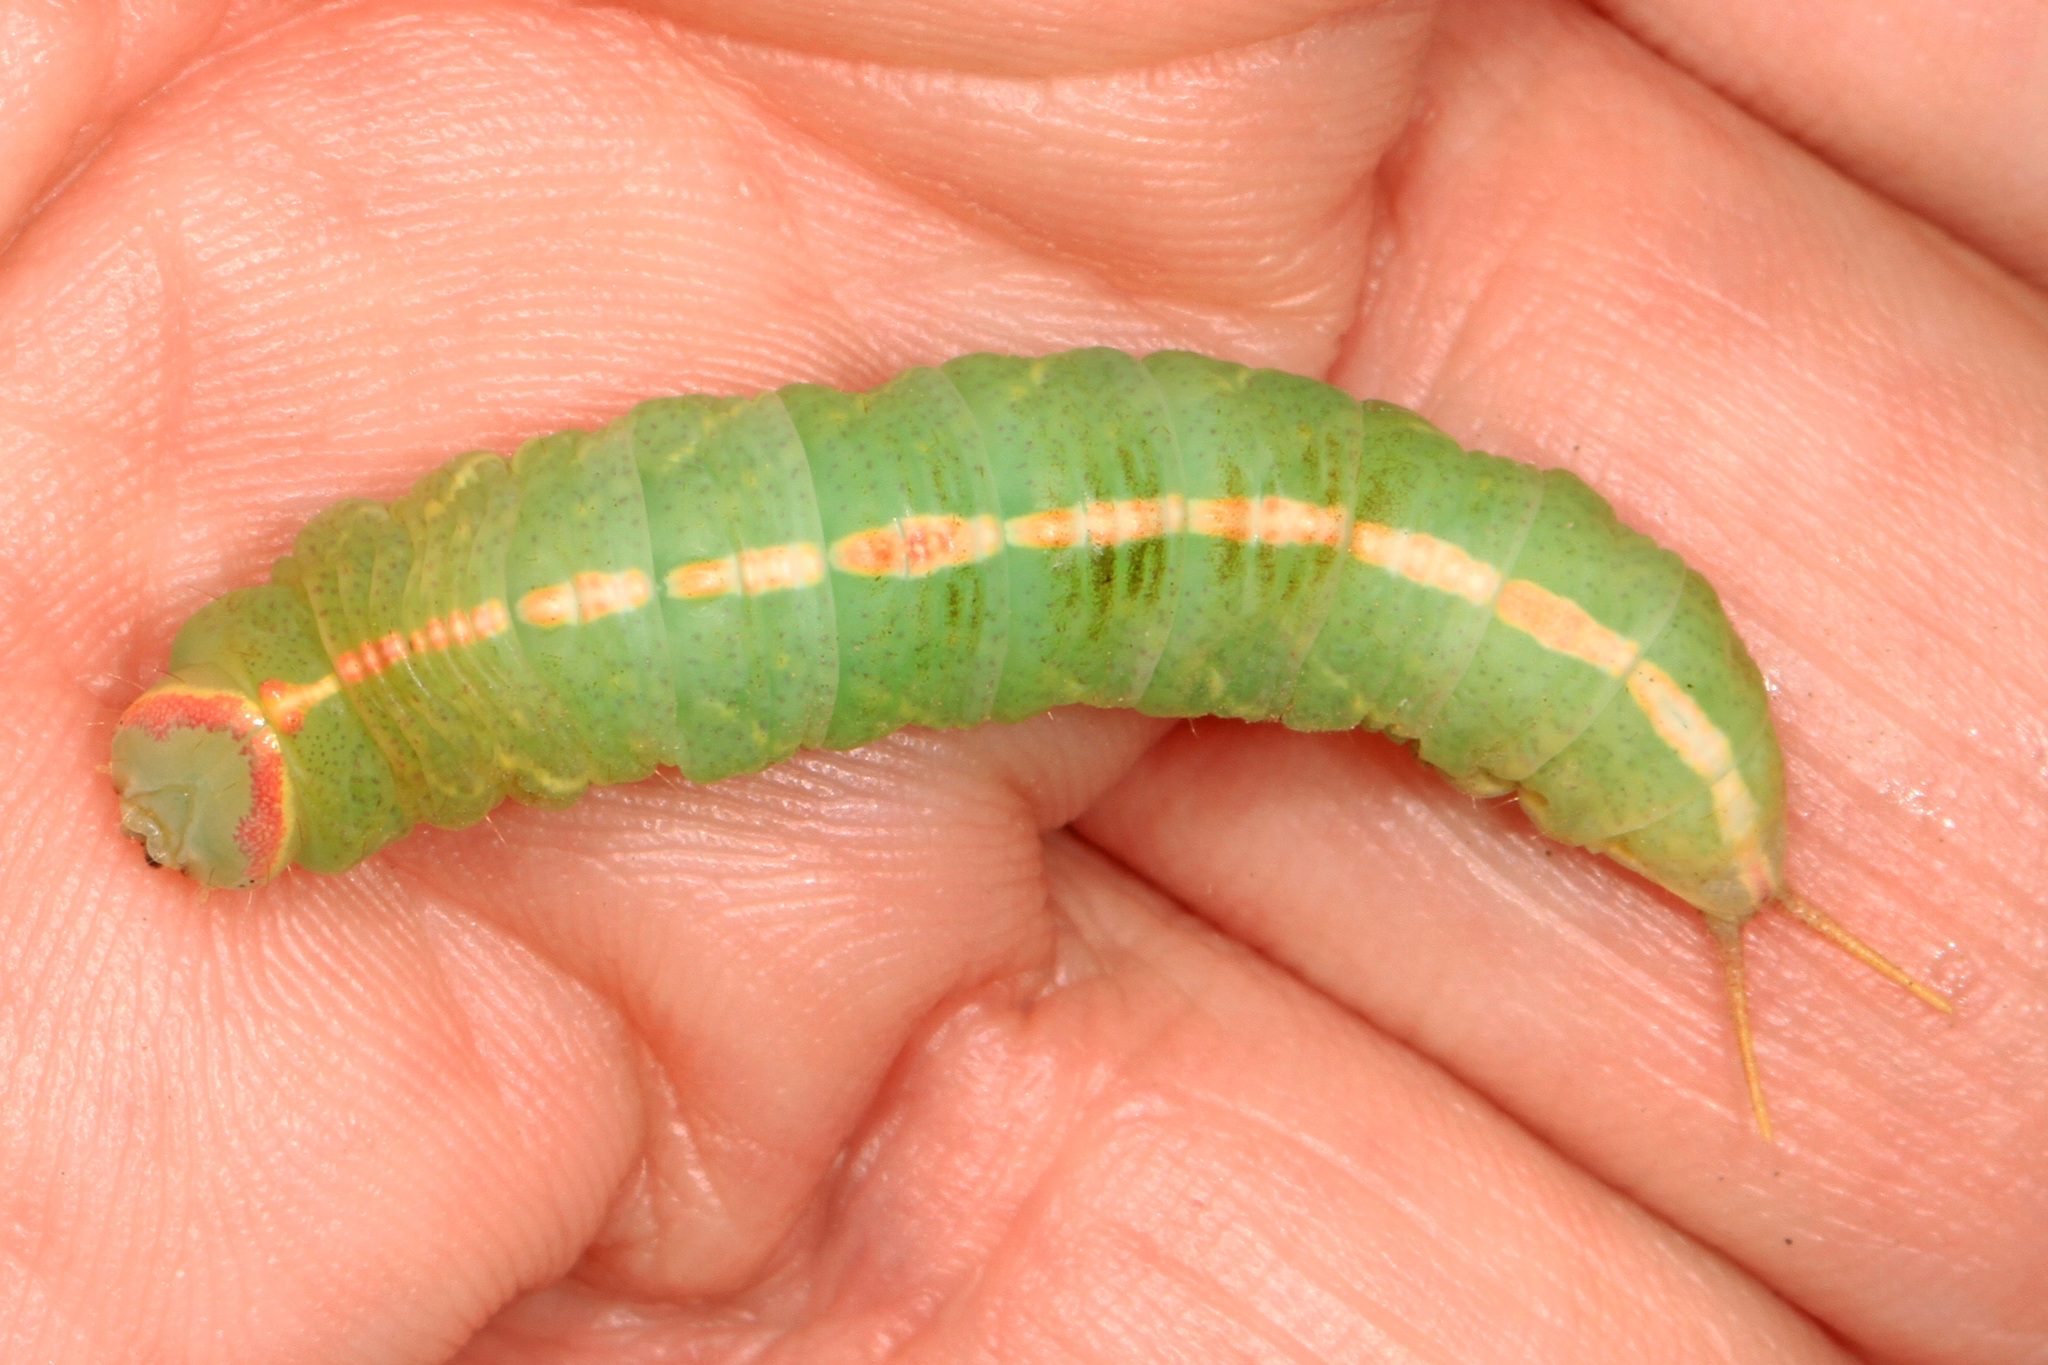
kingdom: Animalia
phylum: Arthropoda
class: Insecta
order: Lepidoptera
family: Notodontidae
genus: Macrurocampa
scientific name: Macrurocampa marthesia
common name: Mottled prominent
